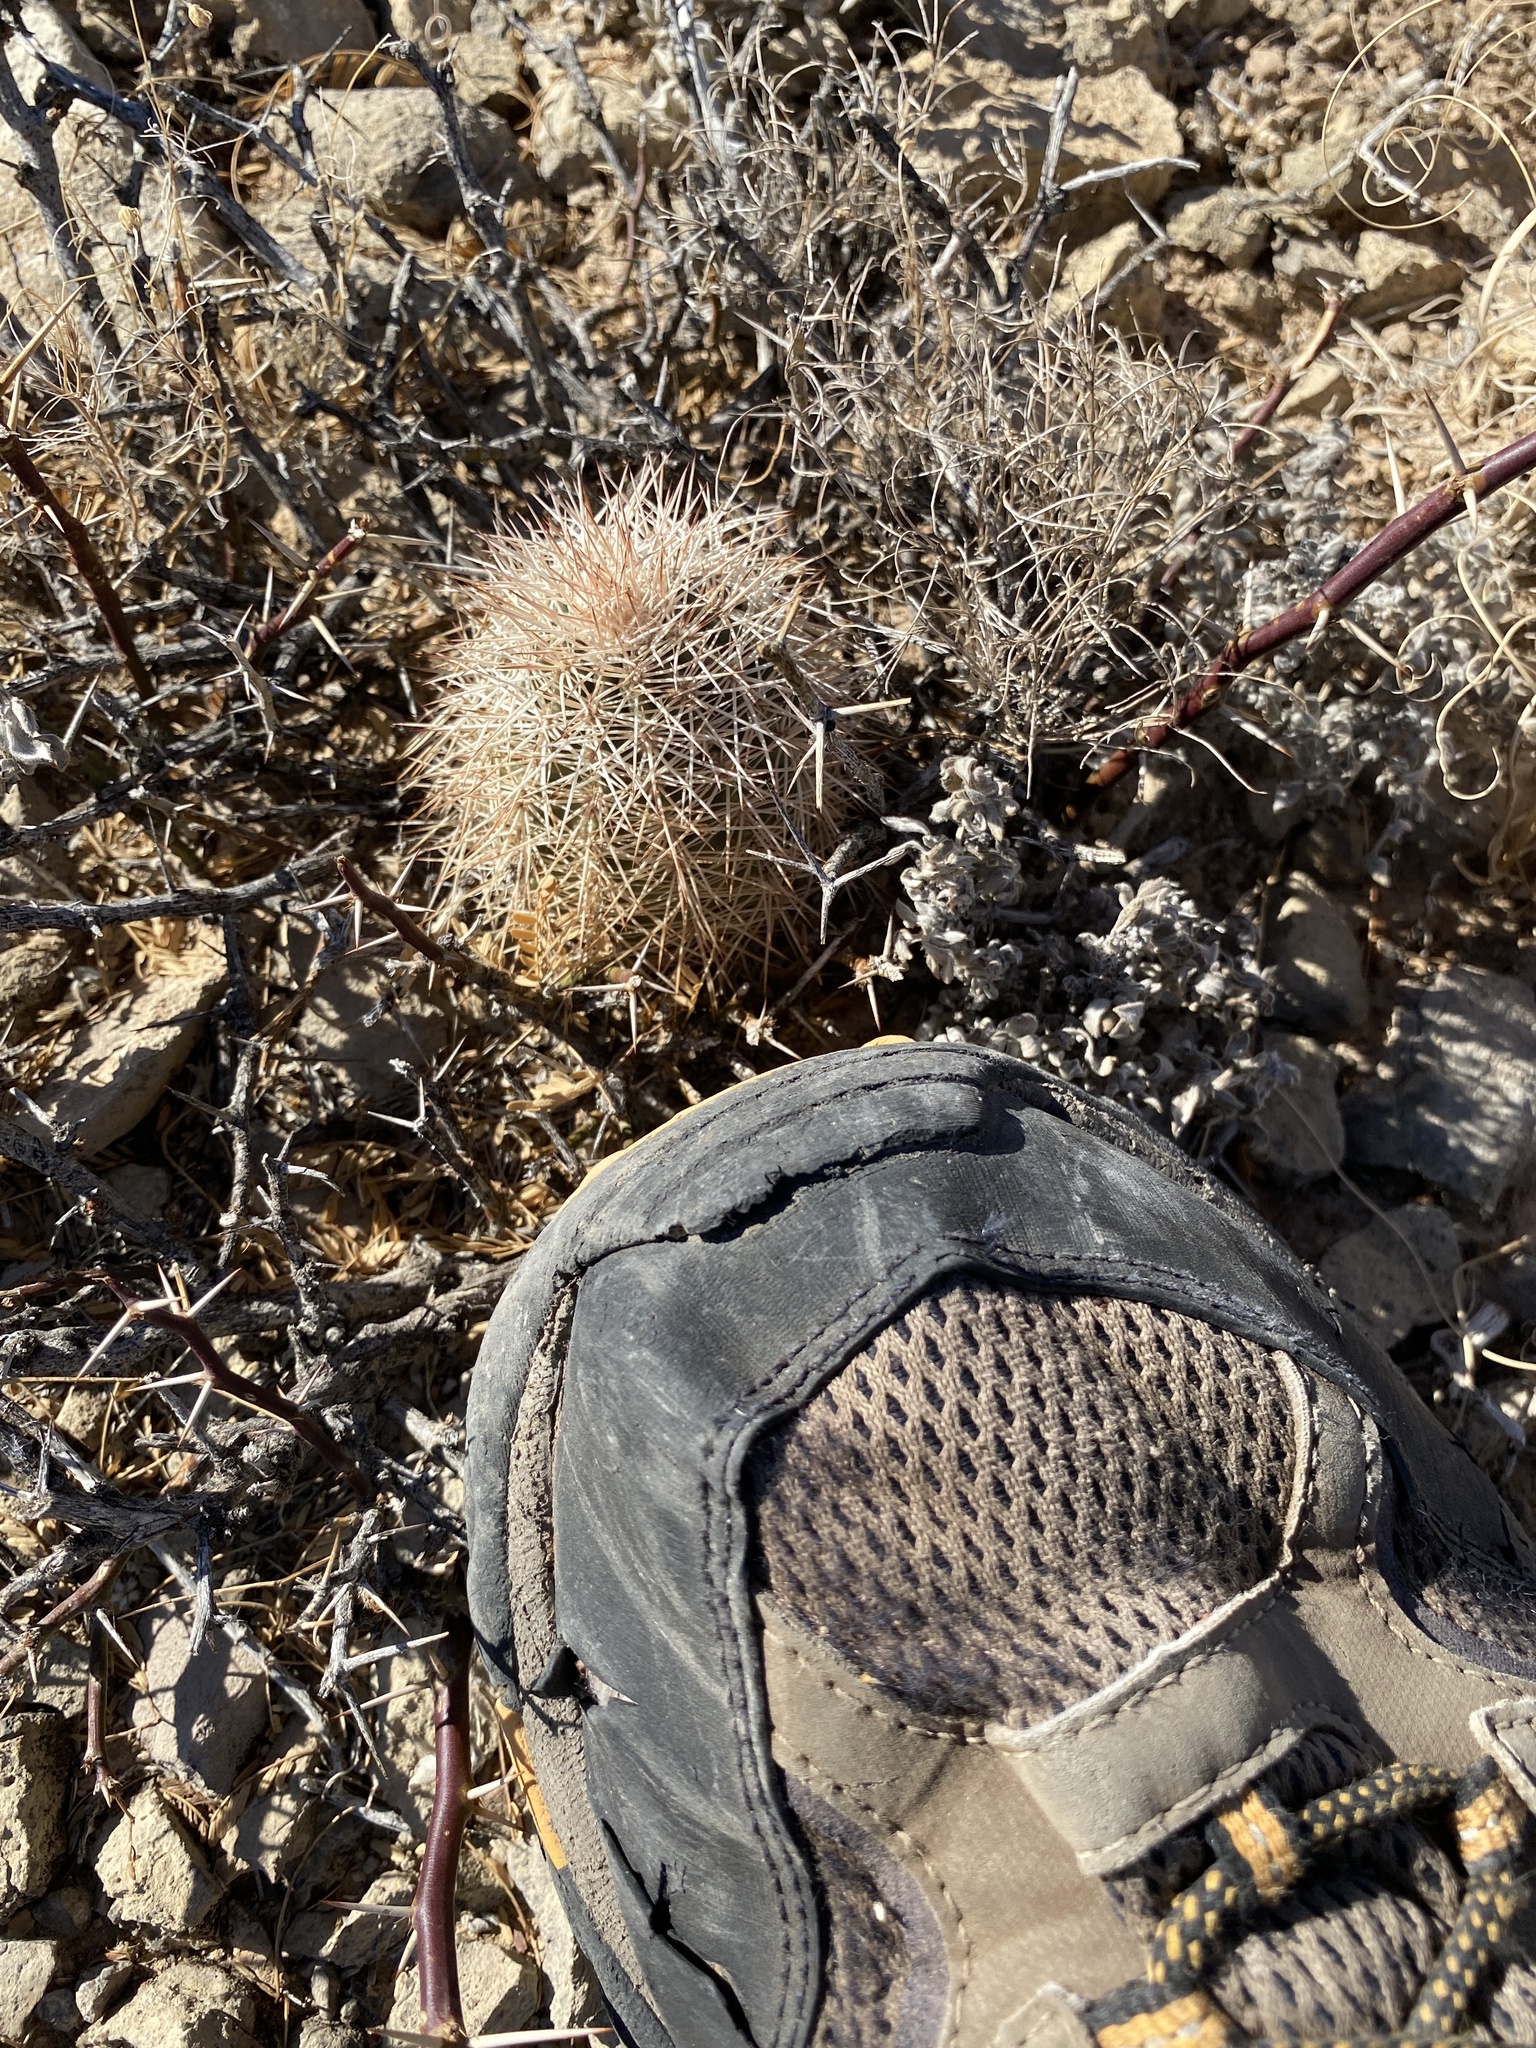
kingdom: Plantae
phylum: Tracheophyta
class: Magnoliopsida
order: Caryophyllales
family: Cactaceae
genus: Echinocereus
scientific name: Echinocereus dasyacanthus
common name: Spiny hedgehog cactus
